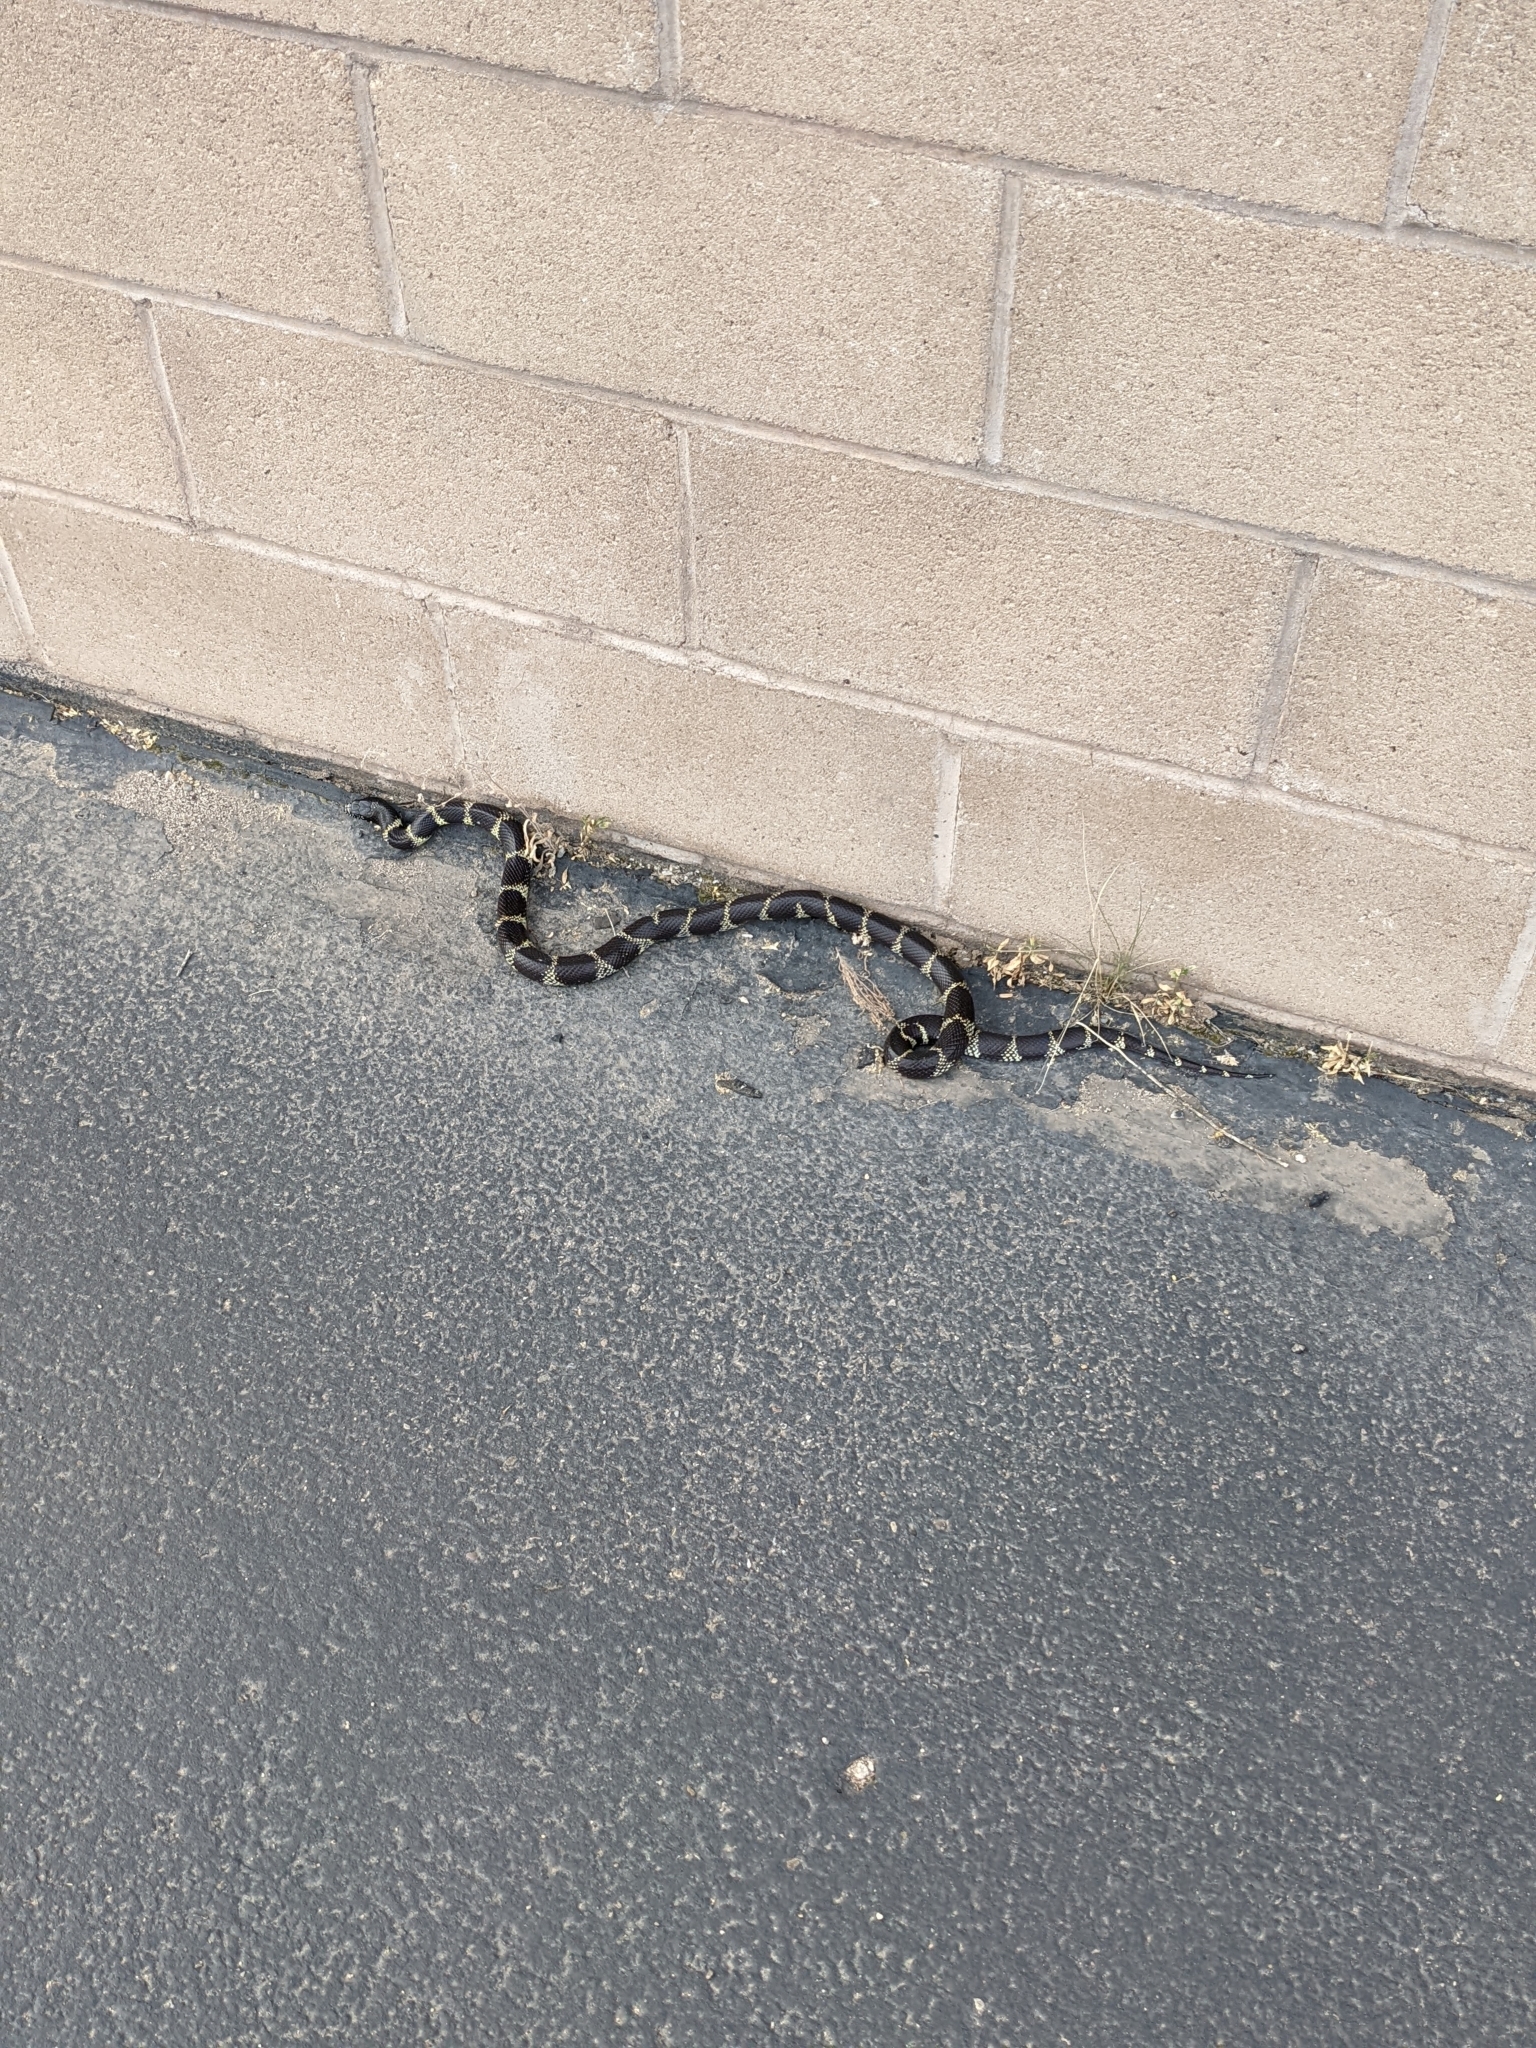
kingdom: Animalia
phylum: Chordata
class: Squamata
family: Colubridae
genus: Lampropeltis
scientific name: Lampropeltis californiae
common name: California kingsnake
